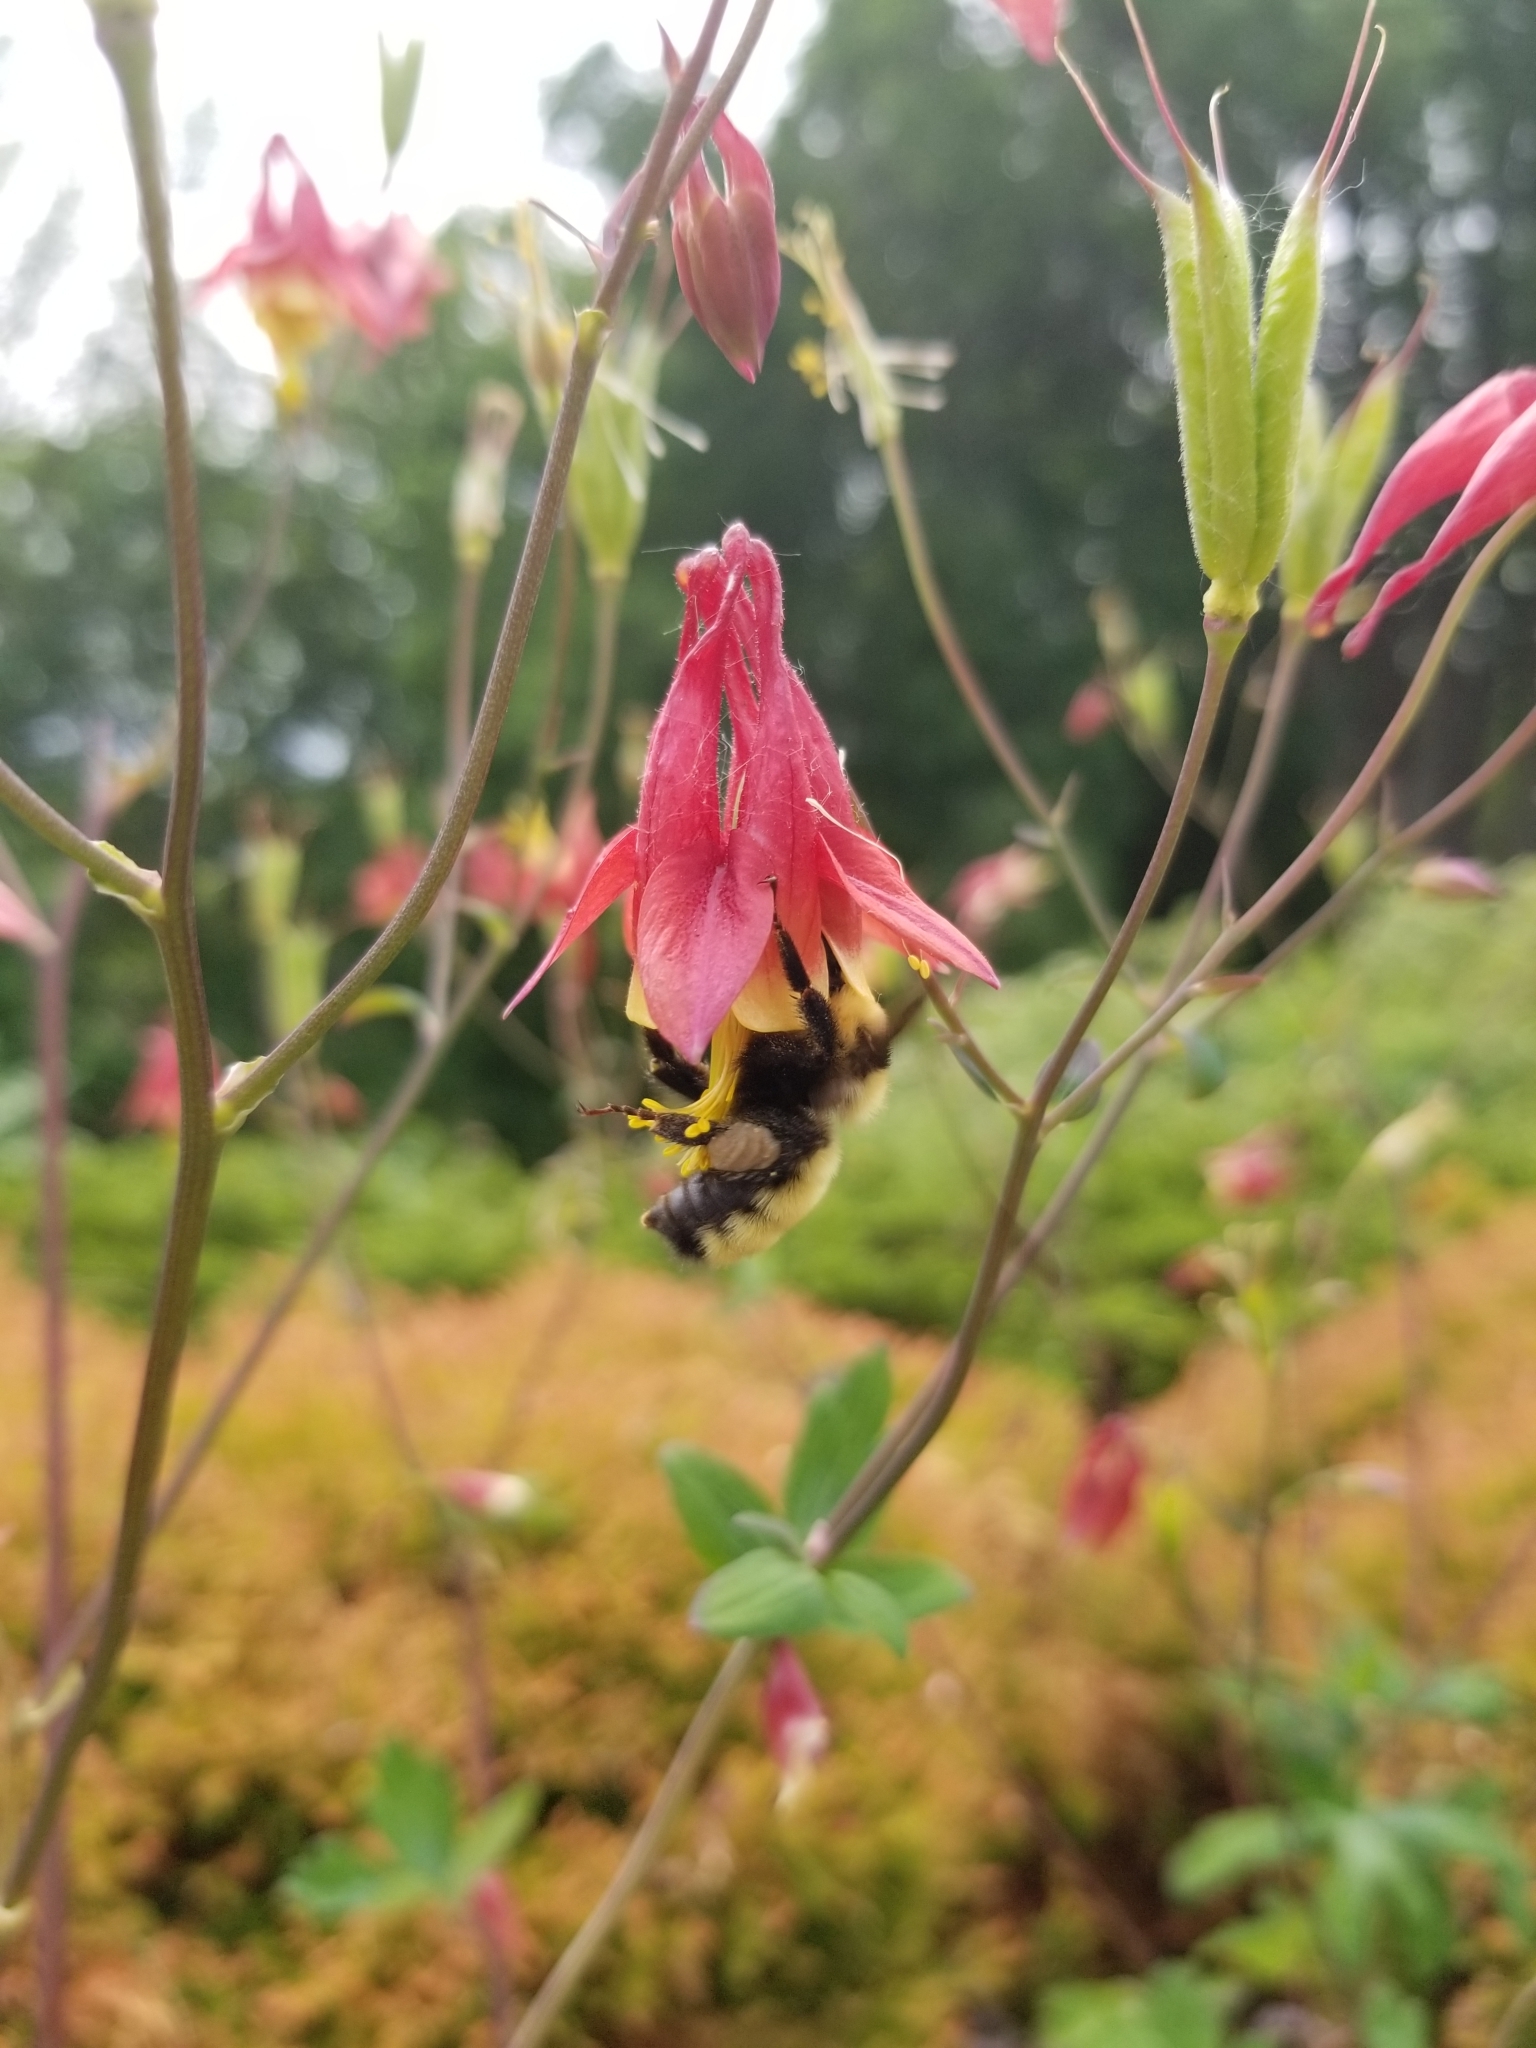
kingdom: Animalia
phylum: Arthropoda
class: Insecta
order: Hymenoptera
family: Apidae
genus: Bombus
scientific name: Bombus fervidus
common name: Yellow bumble bee
